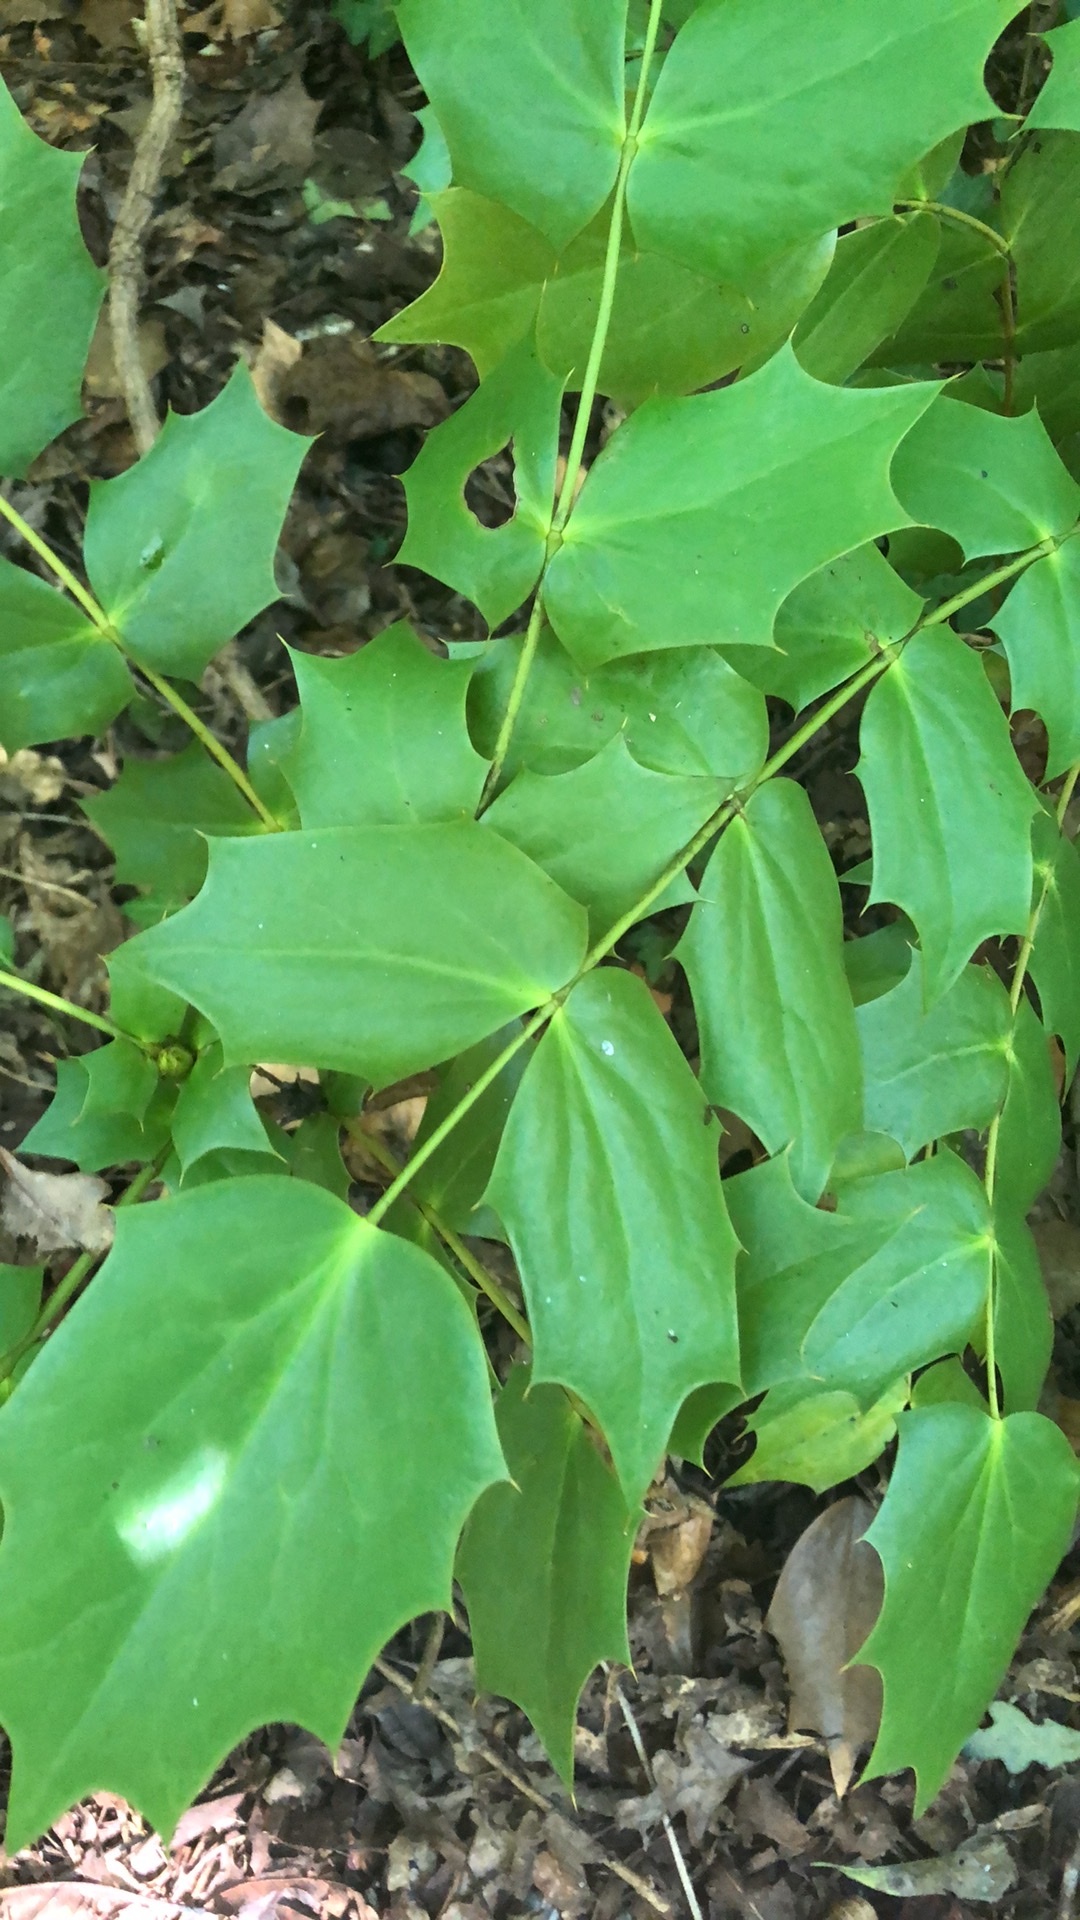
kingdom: Plantae
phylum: Tracheophyta
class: Magnoliopsida
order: Ranunculales
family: Berberidaceae
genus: Mahonia
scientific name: Mahonia bealei
